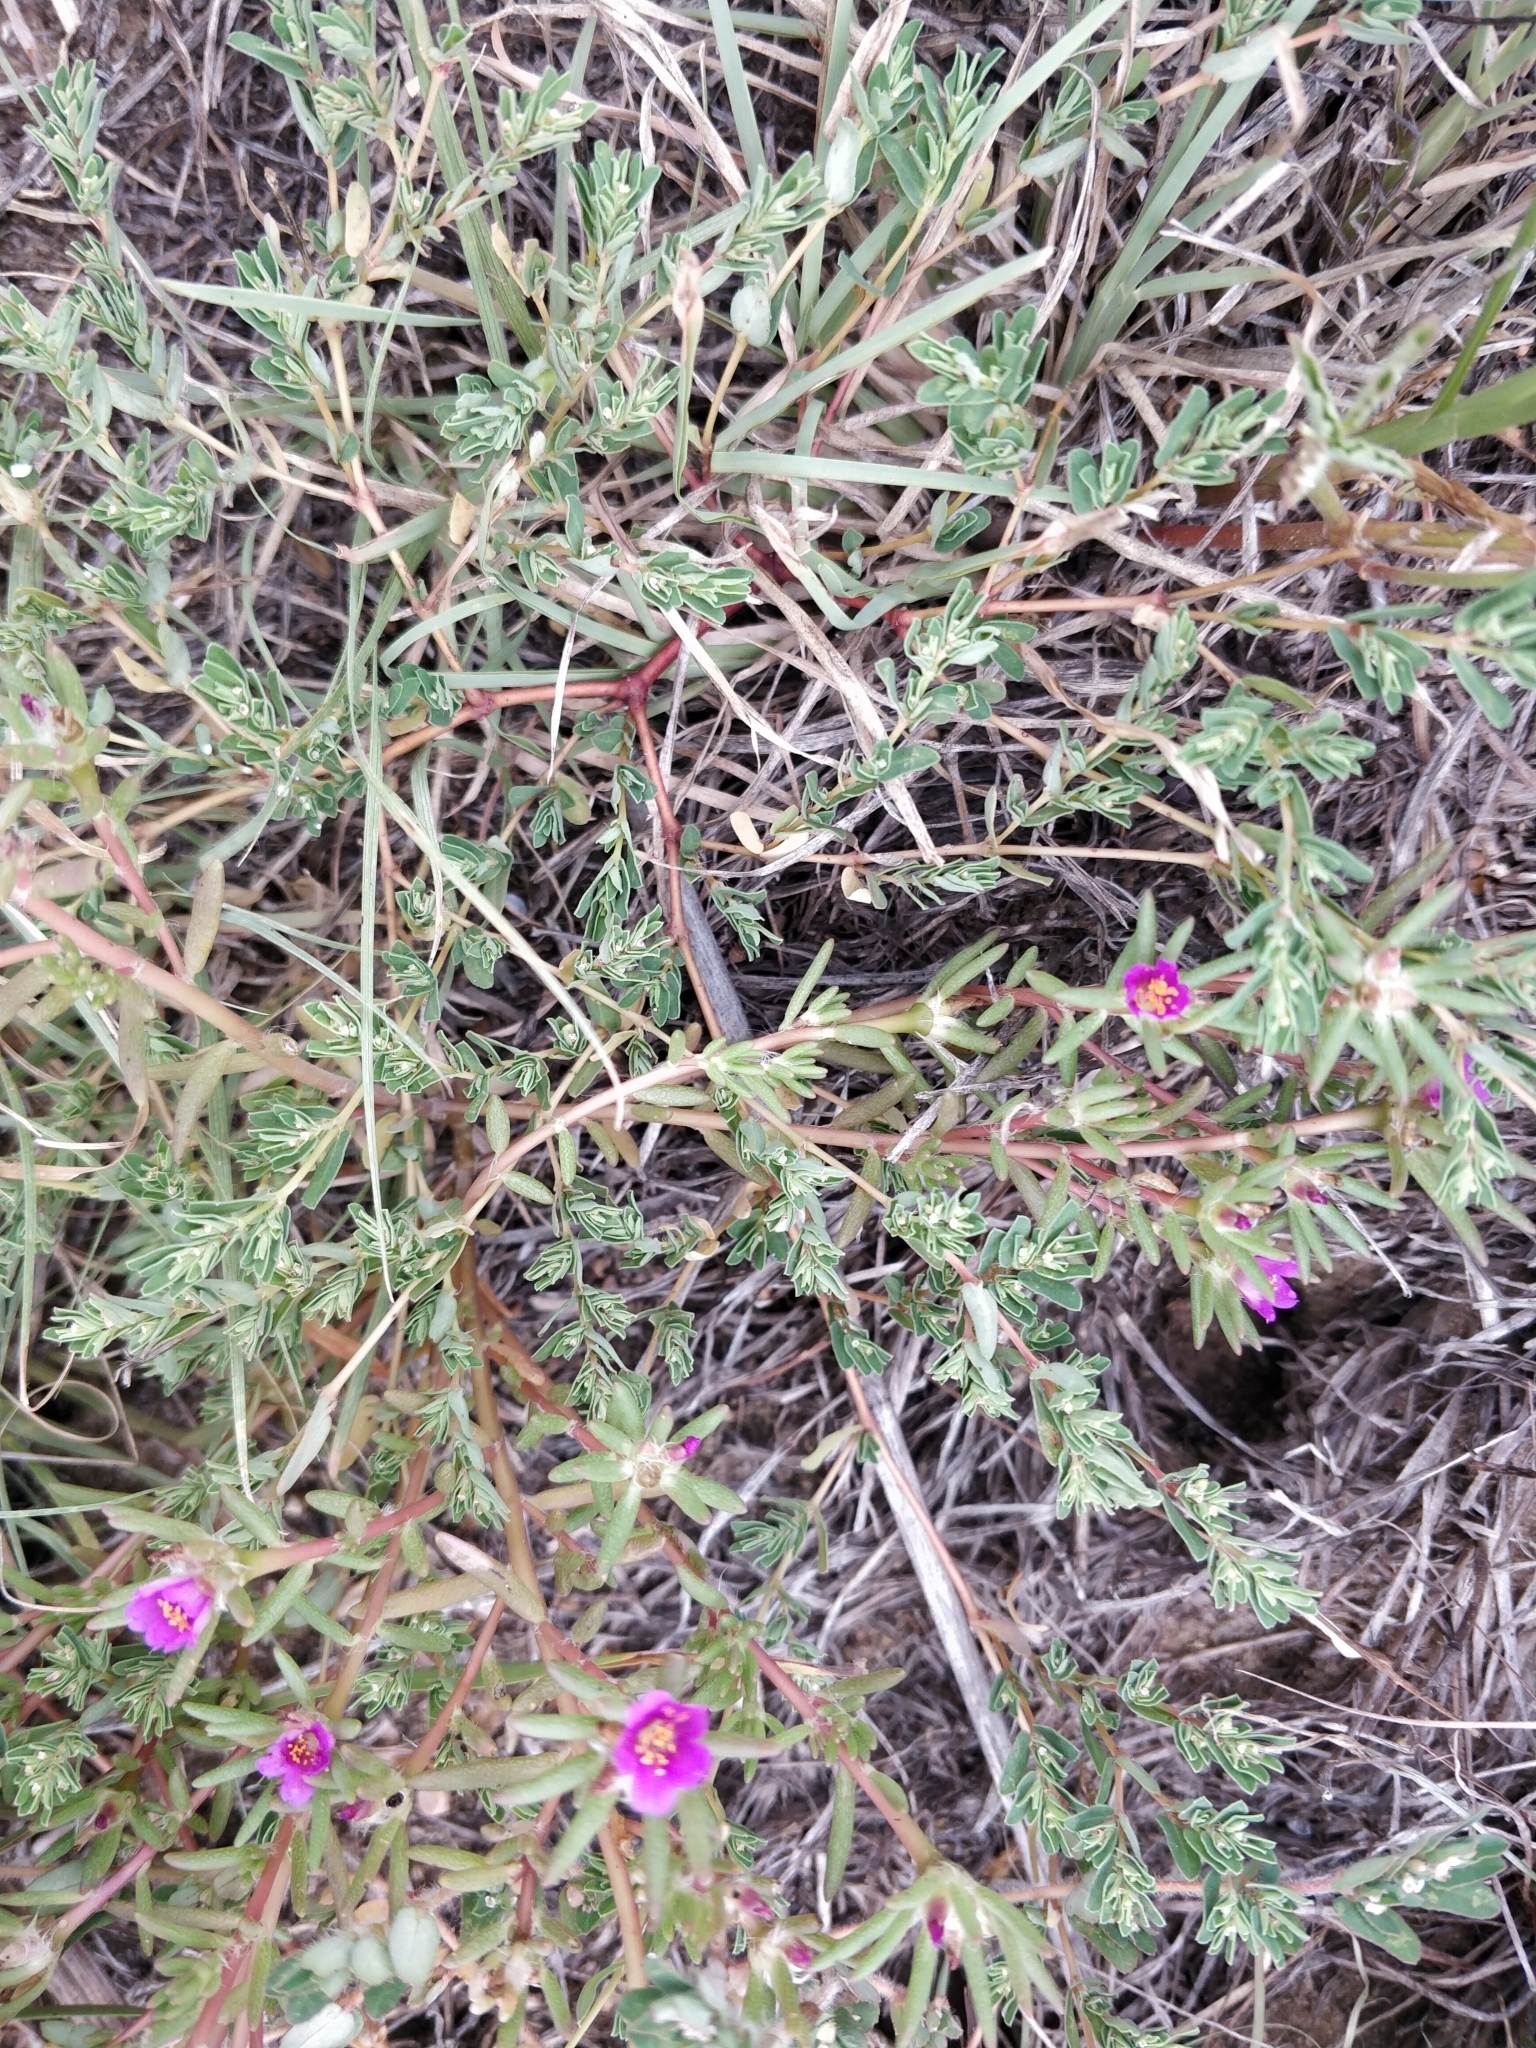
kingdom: Plantae
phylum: Tracheophyta
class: Magnoliopsida
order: Caryophyllales
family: Portulacaceae
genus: Portulaca
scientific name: Portulaca pilosa
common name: Kiss me quick
